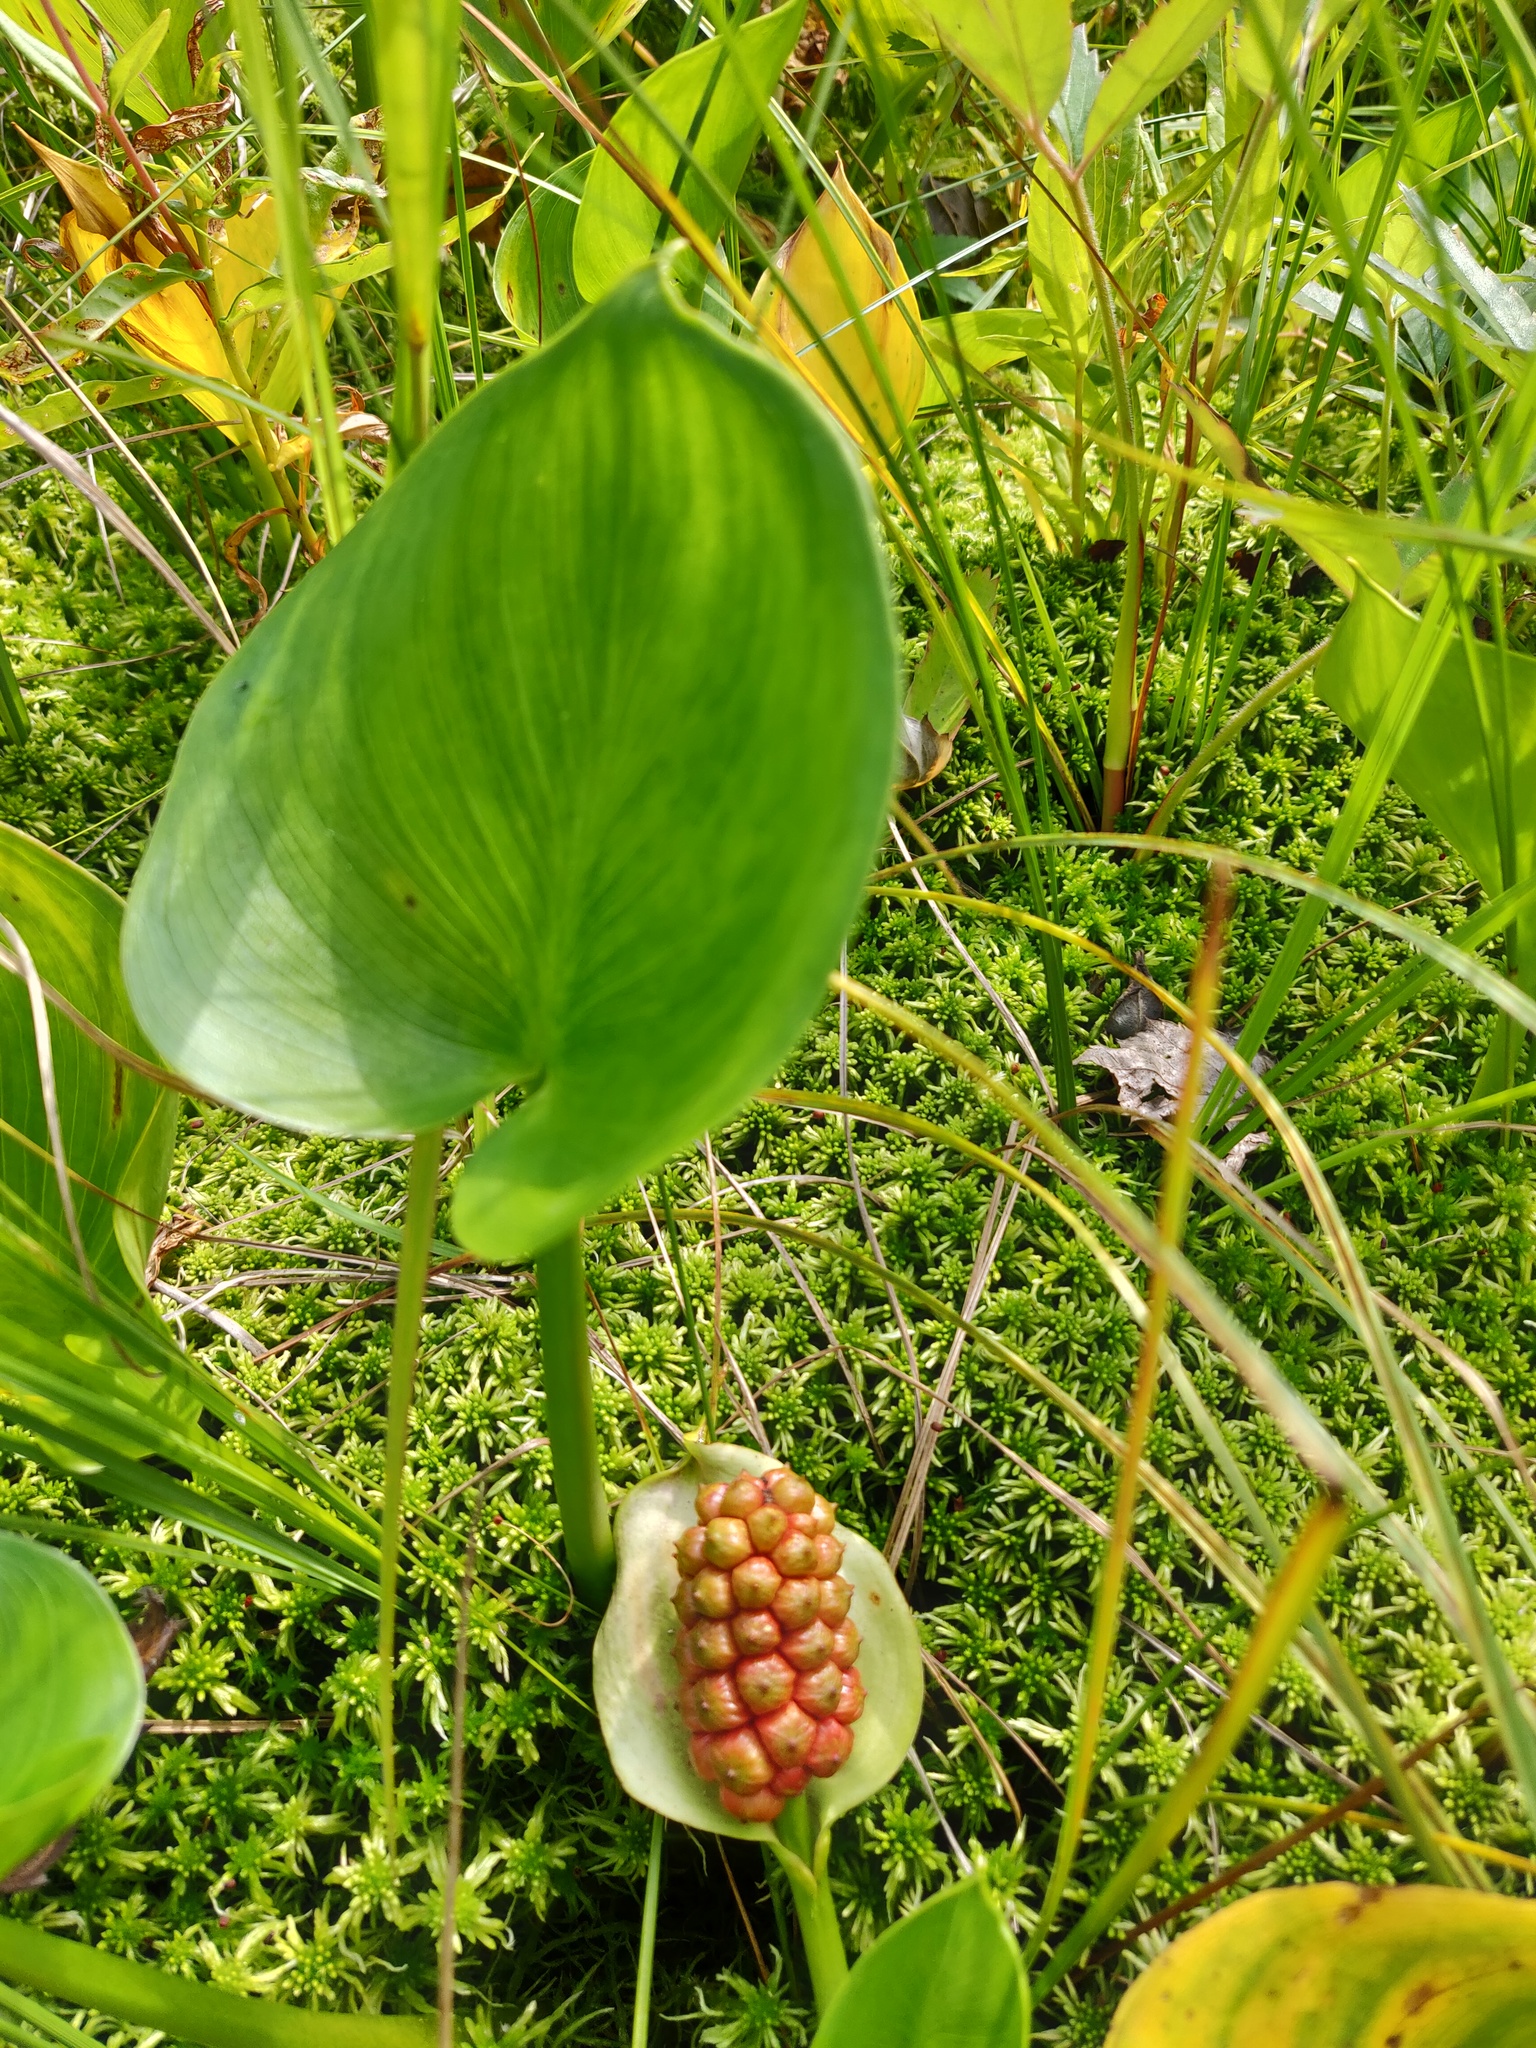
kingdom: Plantae
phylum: Tracheophyta
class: Liliopsida
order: Alismatales
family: Araceae
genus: Calla
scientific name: Calla palustris
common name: Bog arum
